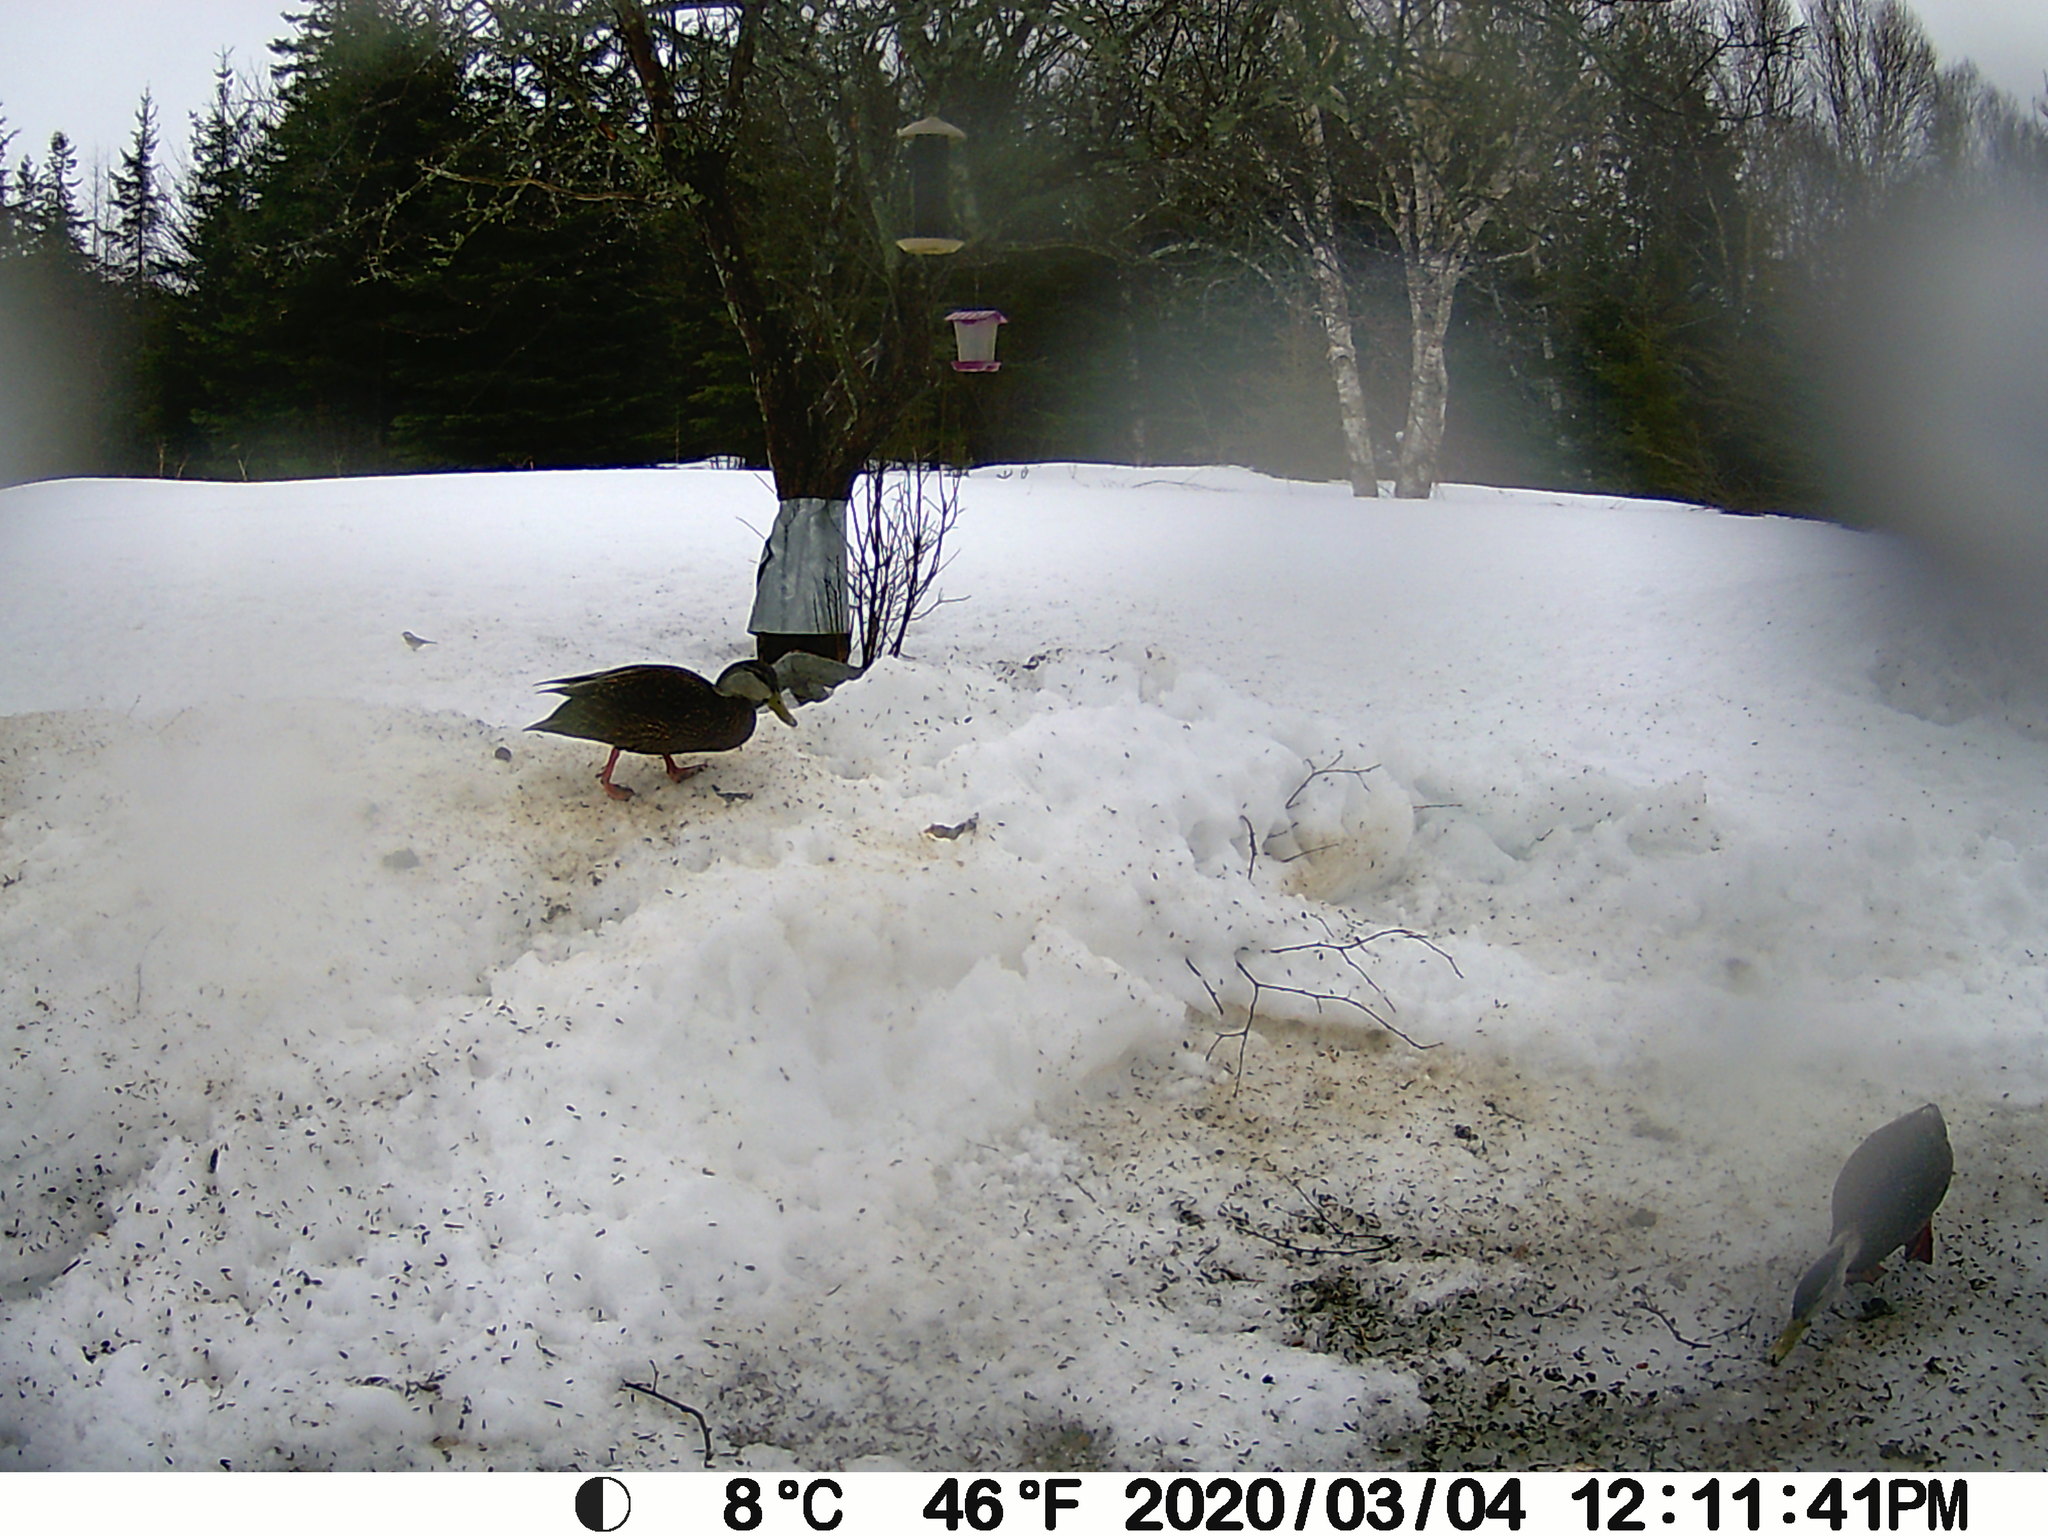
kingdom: Animalia
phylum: Chordata
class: Aves
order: Anseriformes
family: Anatidae
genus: Anas
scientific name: Anas rubripes
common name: American black duck
